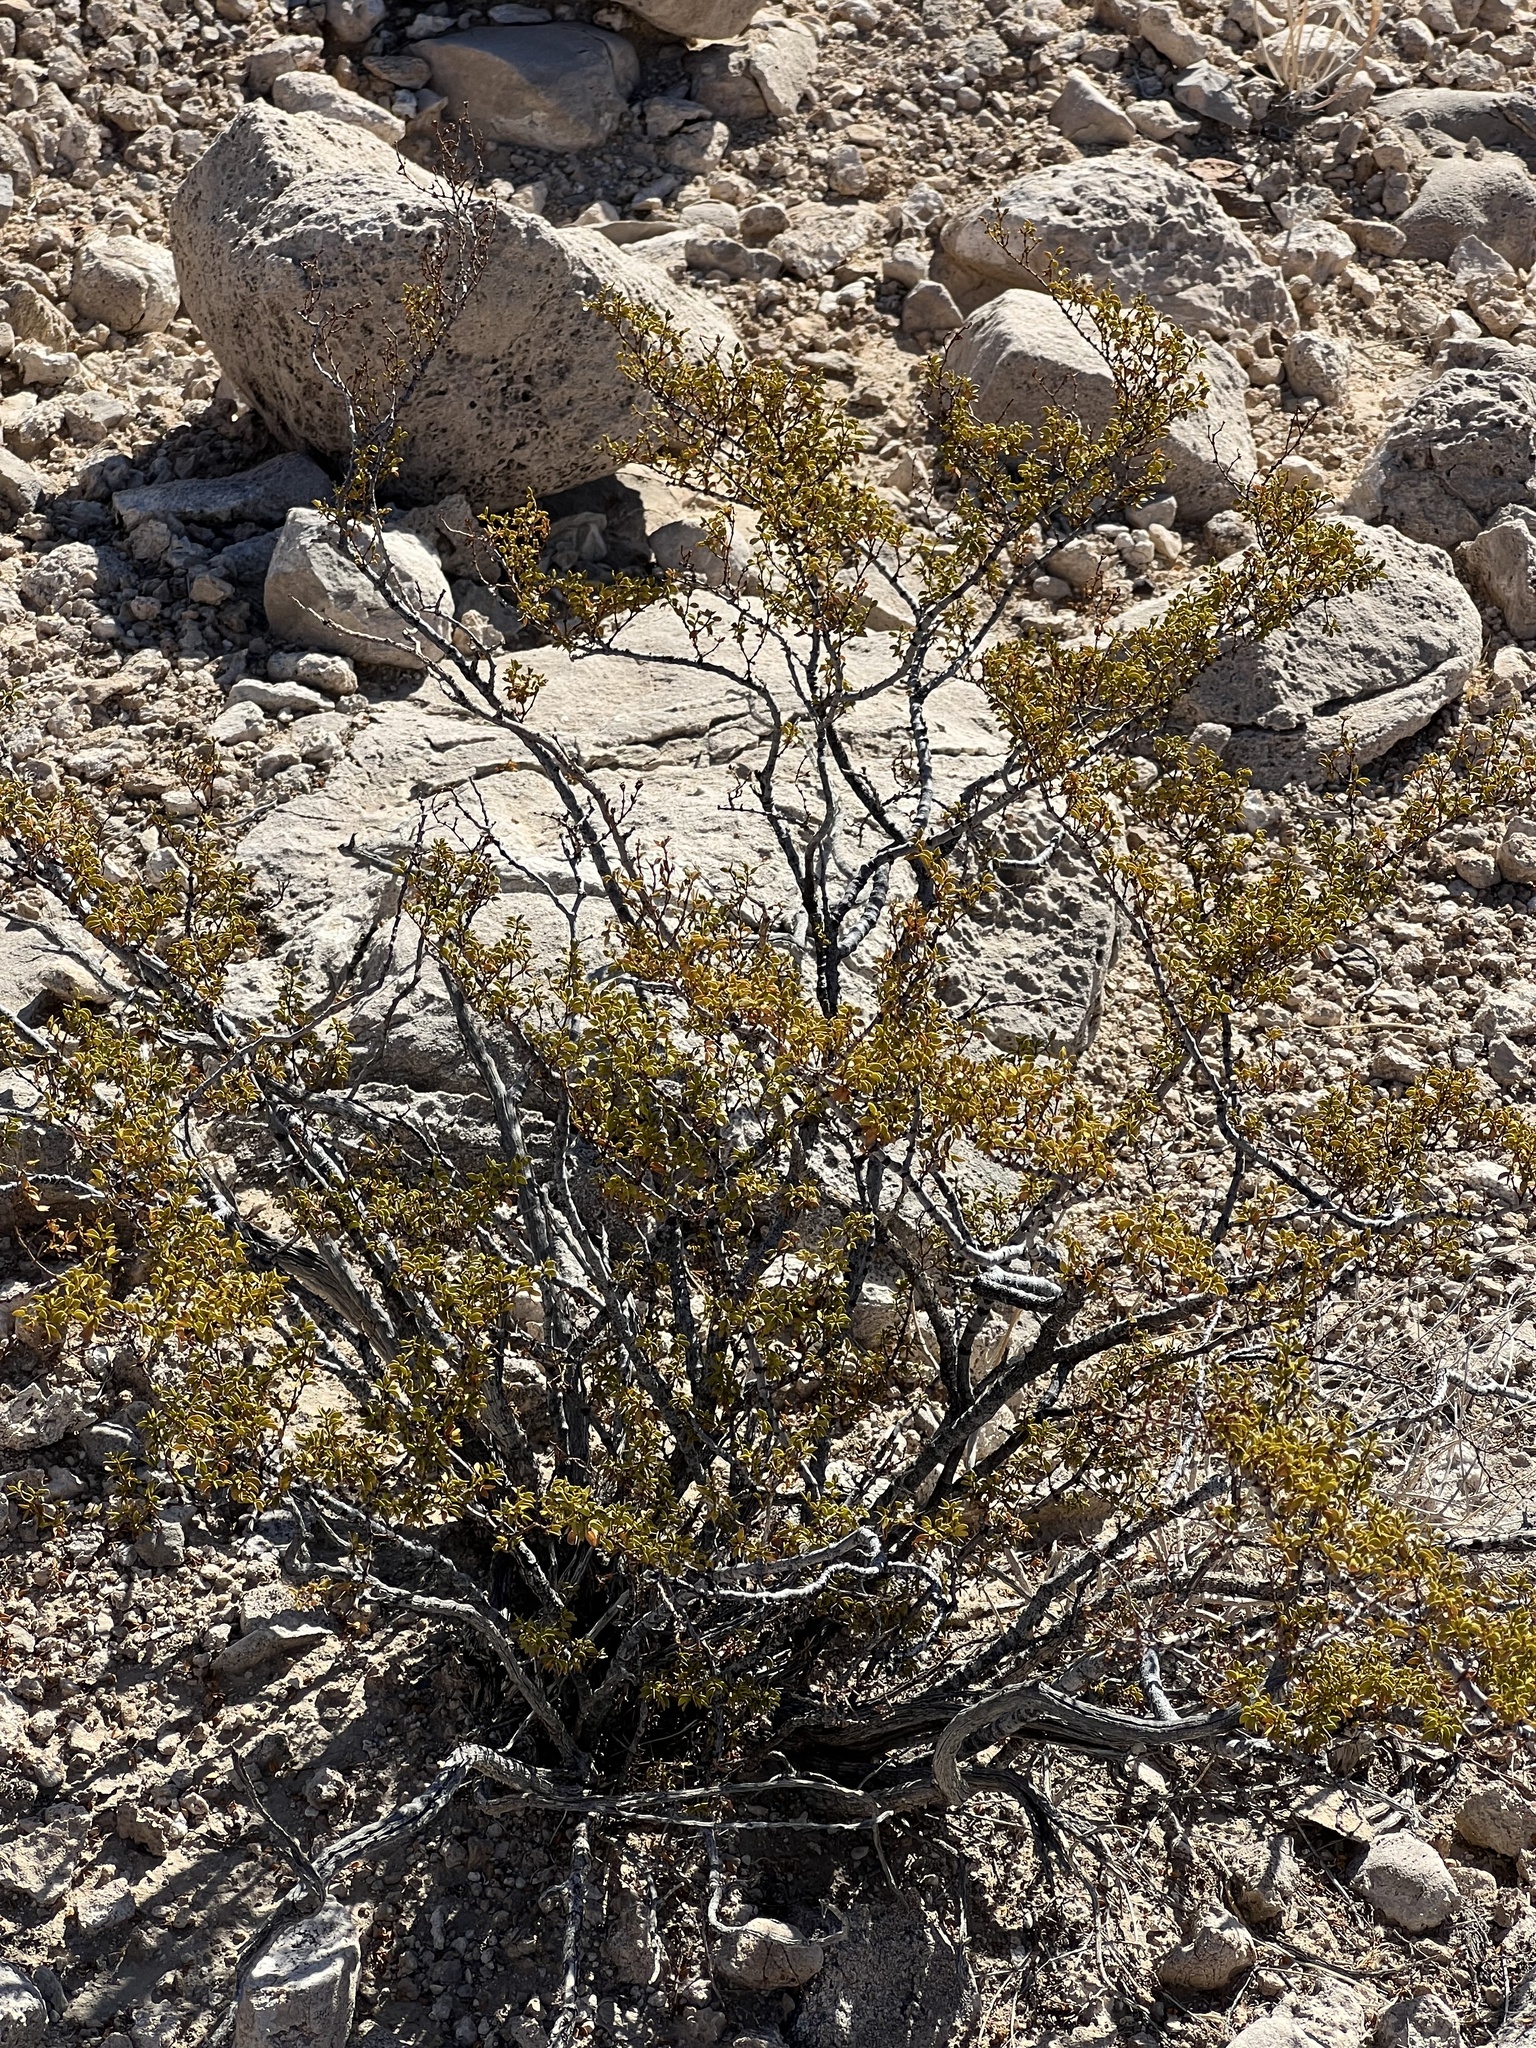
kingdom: Plantae
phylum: Tracheophyta
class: Magnoliopsida
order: Zygophyllales
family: Zygophyllaceae
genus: Larrea
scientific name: Larrea tridentata
